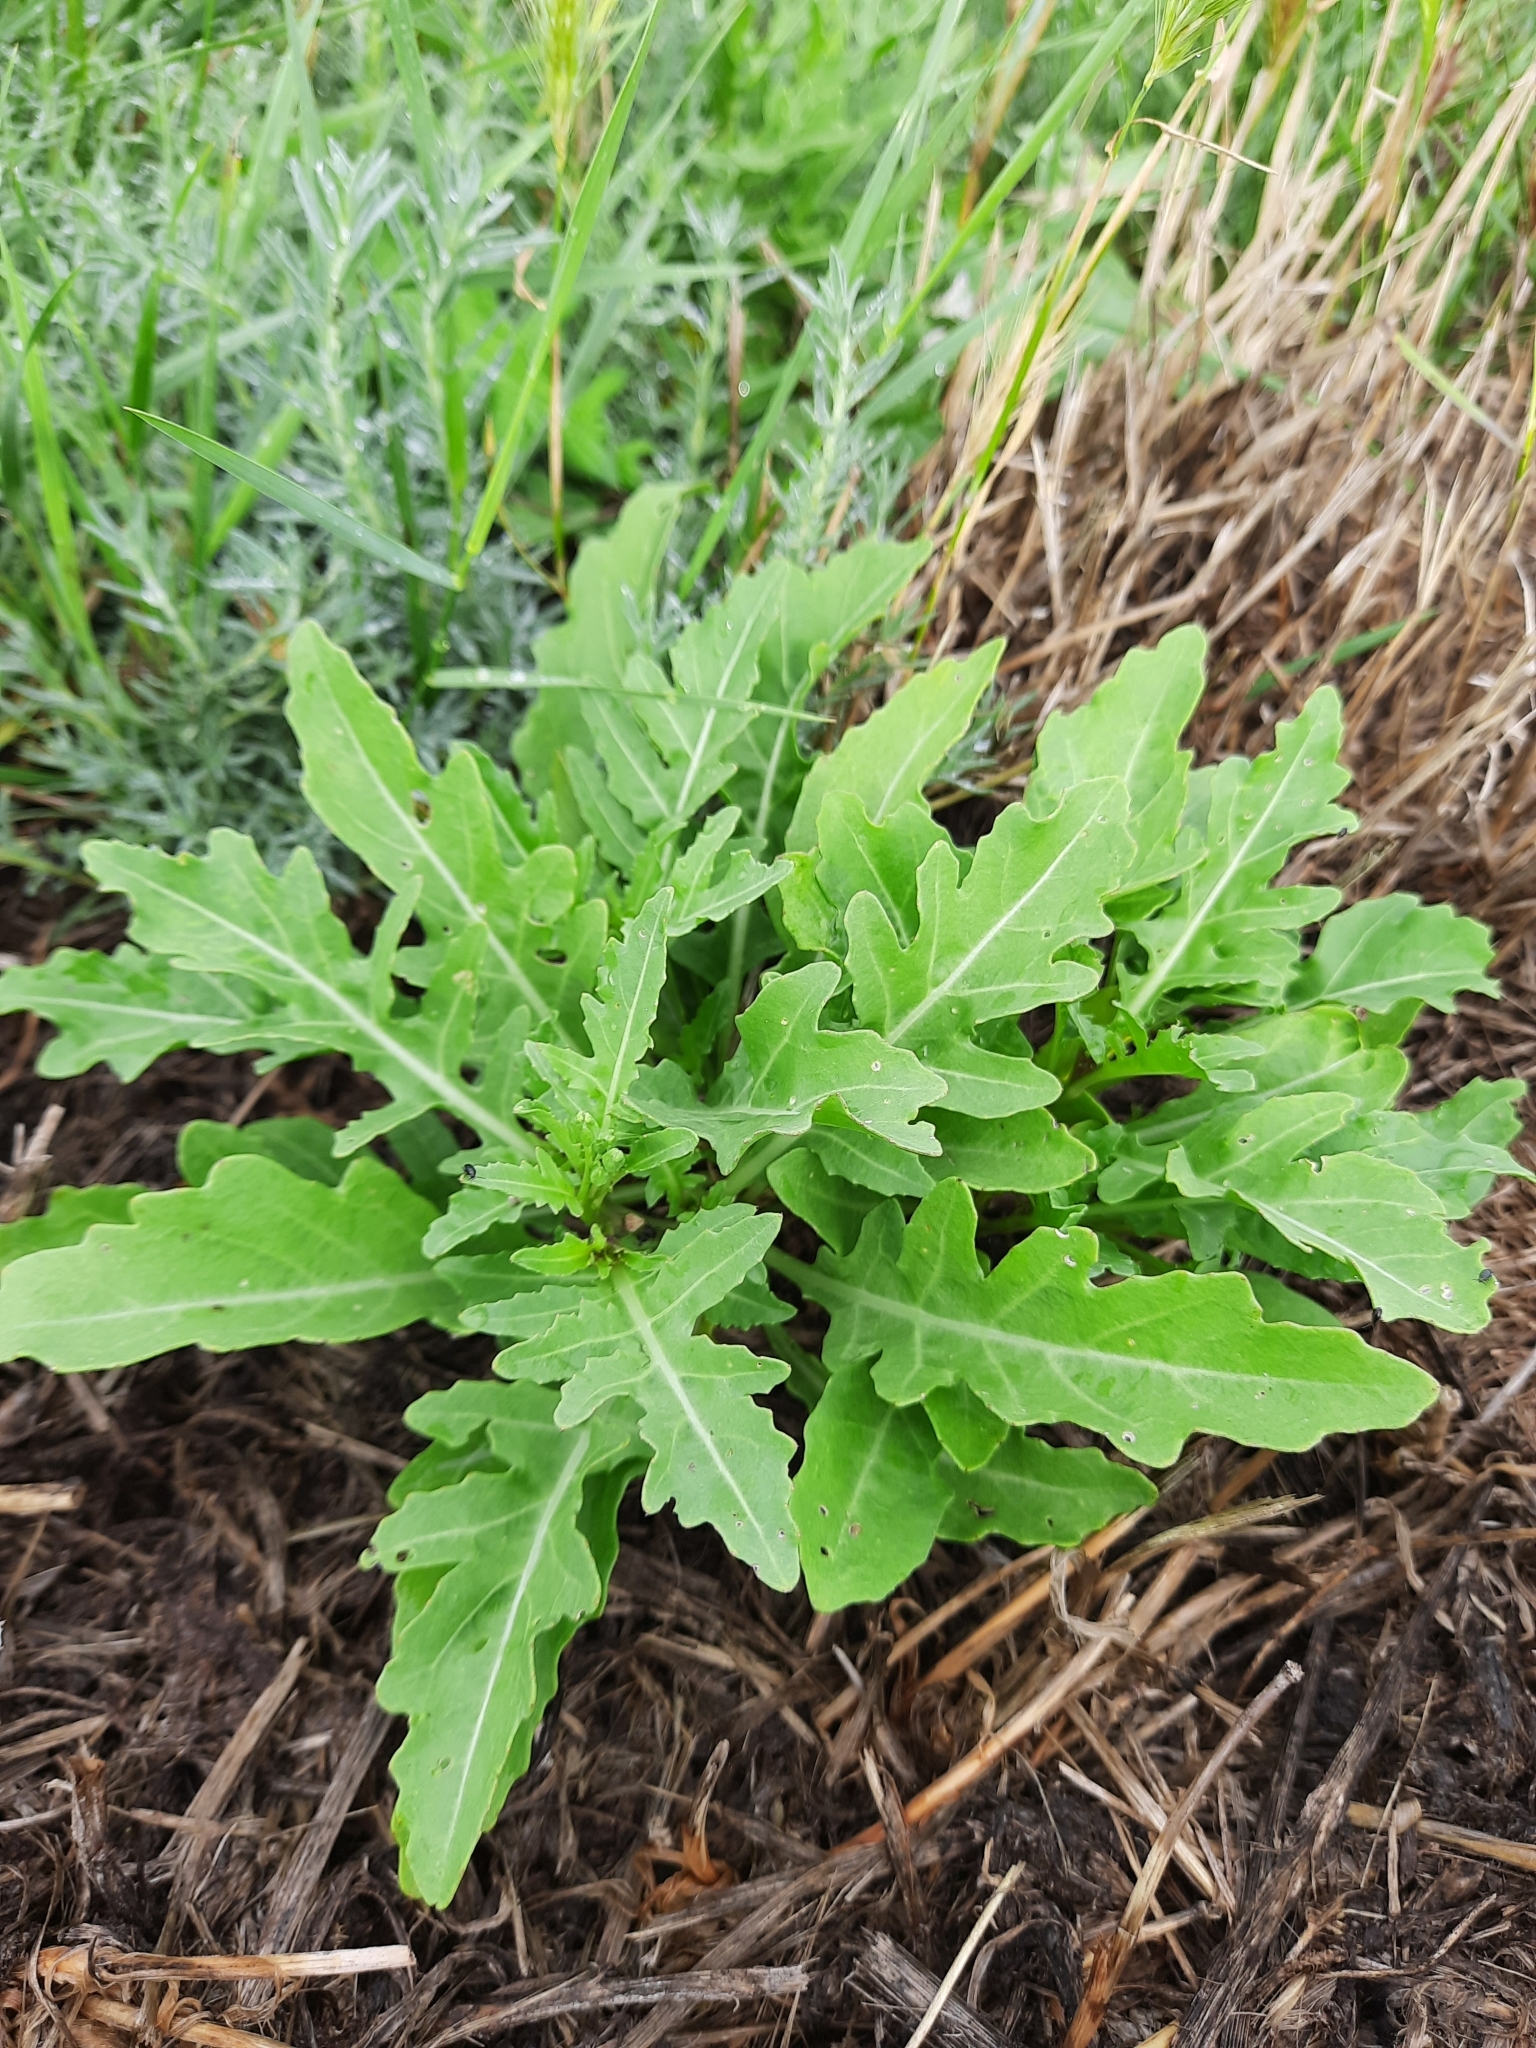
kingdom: Plantae
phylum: Tracheophyta
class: Magnoliopsida
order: Brassicales
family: Brassicaceae
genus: Diplotaxis
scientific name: Diplotaxis tenuifolia
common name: Perennial wall-rocket
